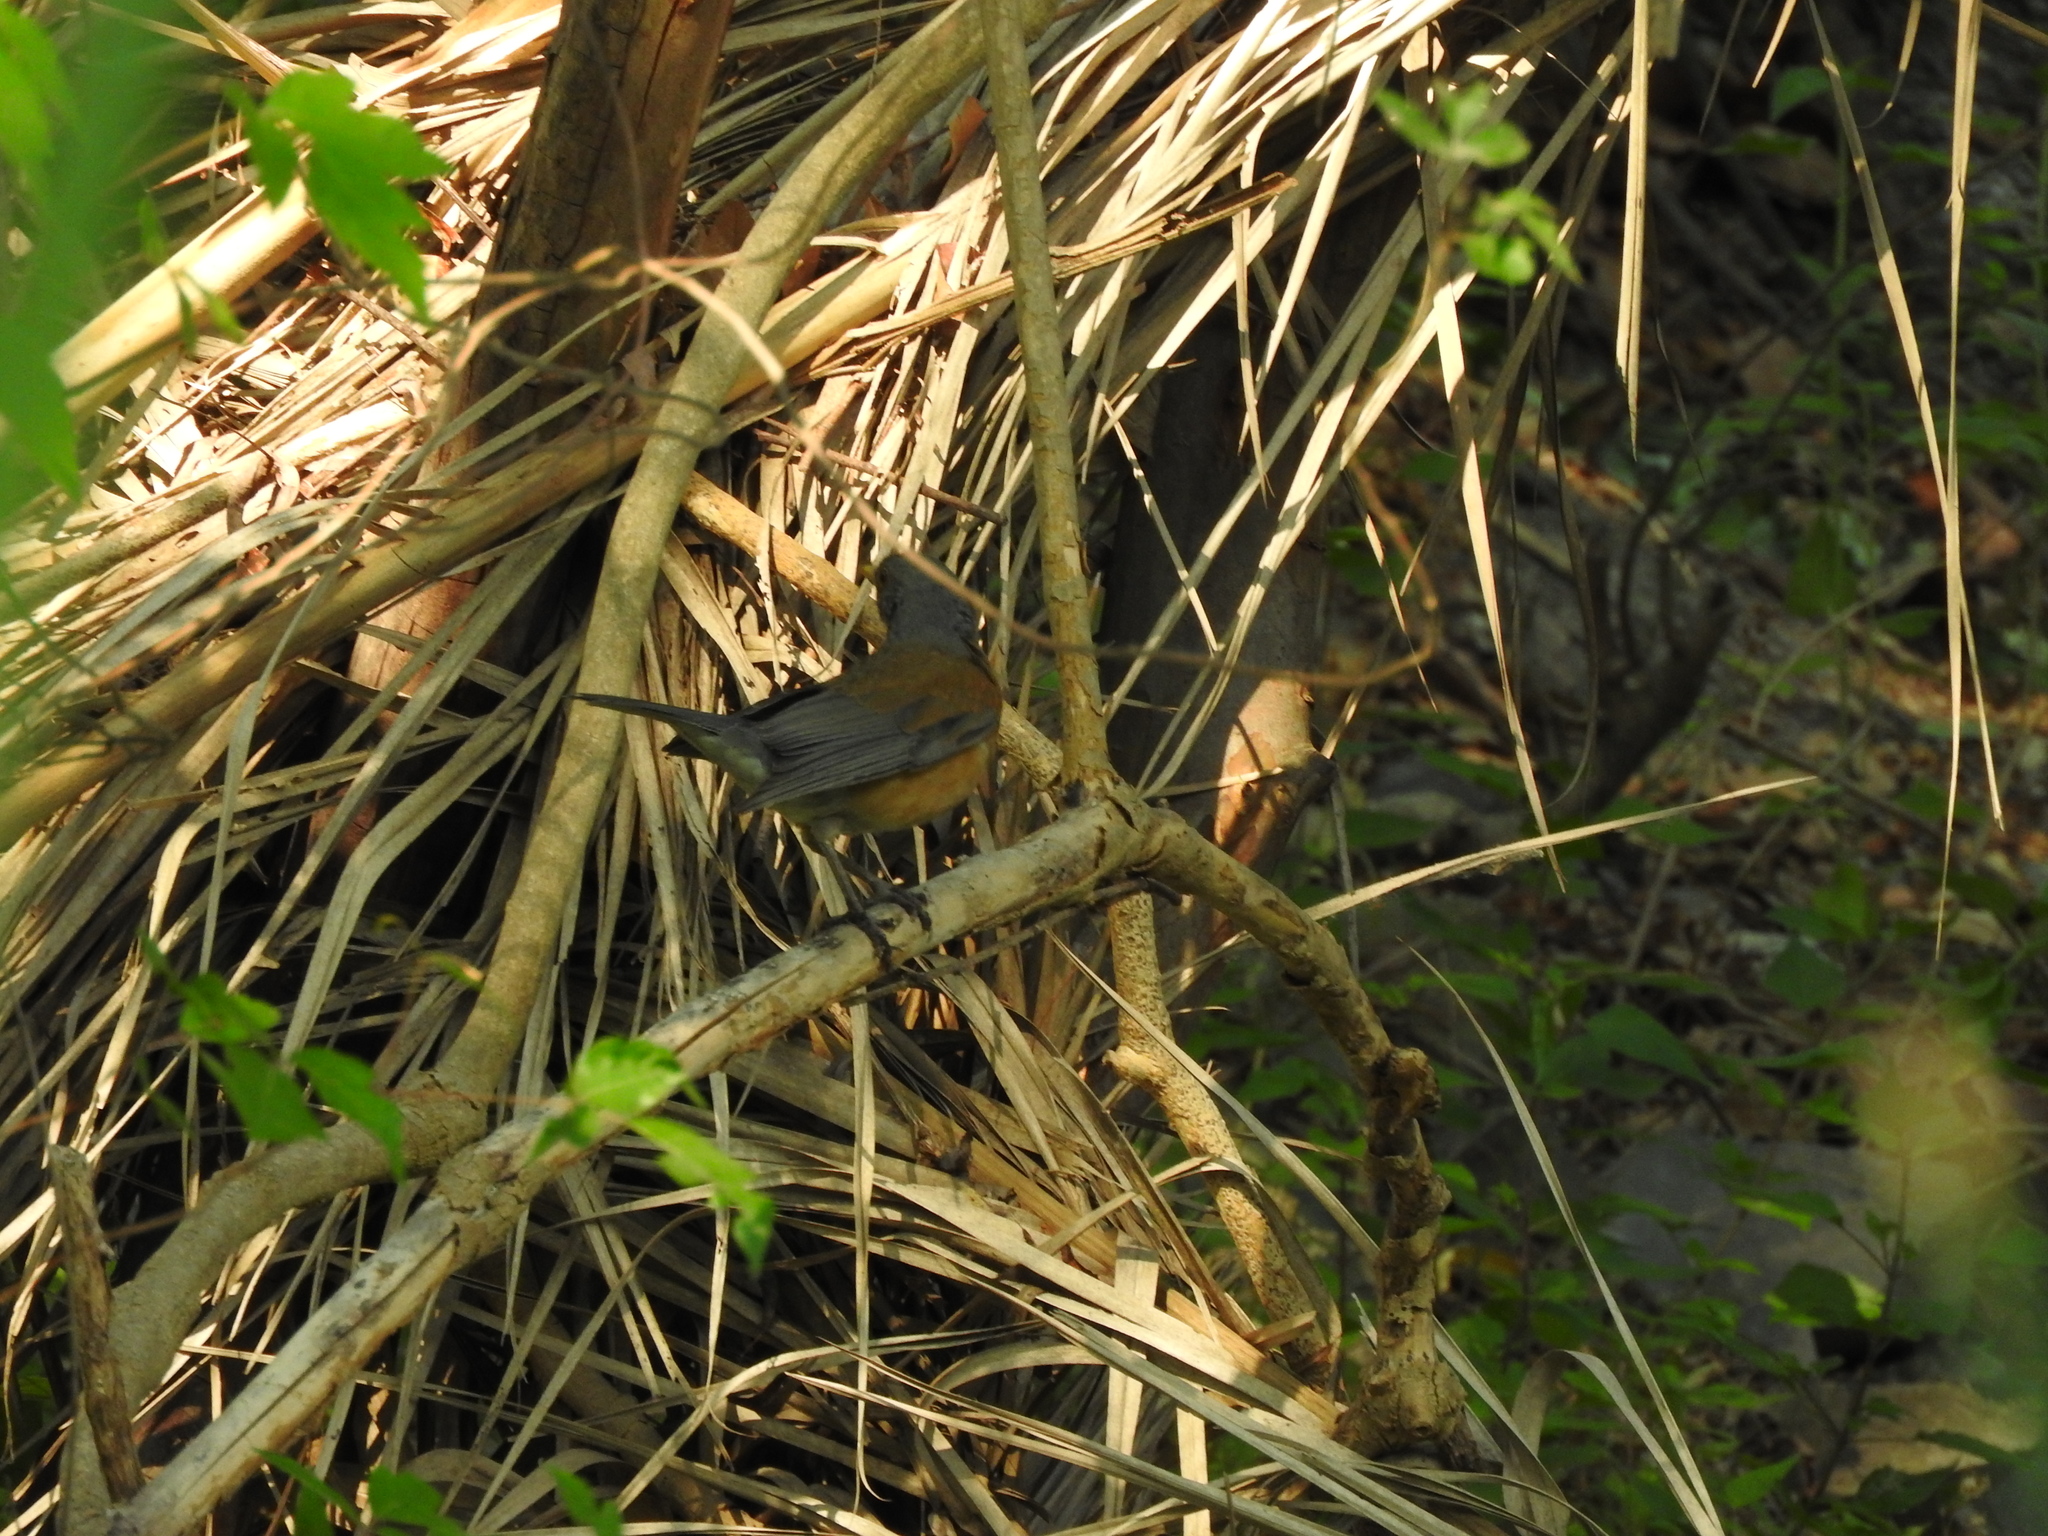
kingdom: Animalia
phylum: Chordata
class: Aves
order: Passeriformes
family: Turdidae
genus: Turdus
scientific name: Turdus rufopalliatus
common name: Rufous-backed robin
